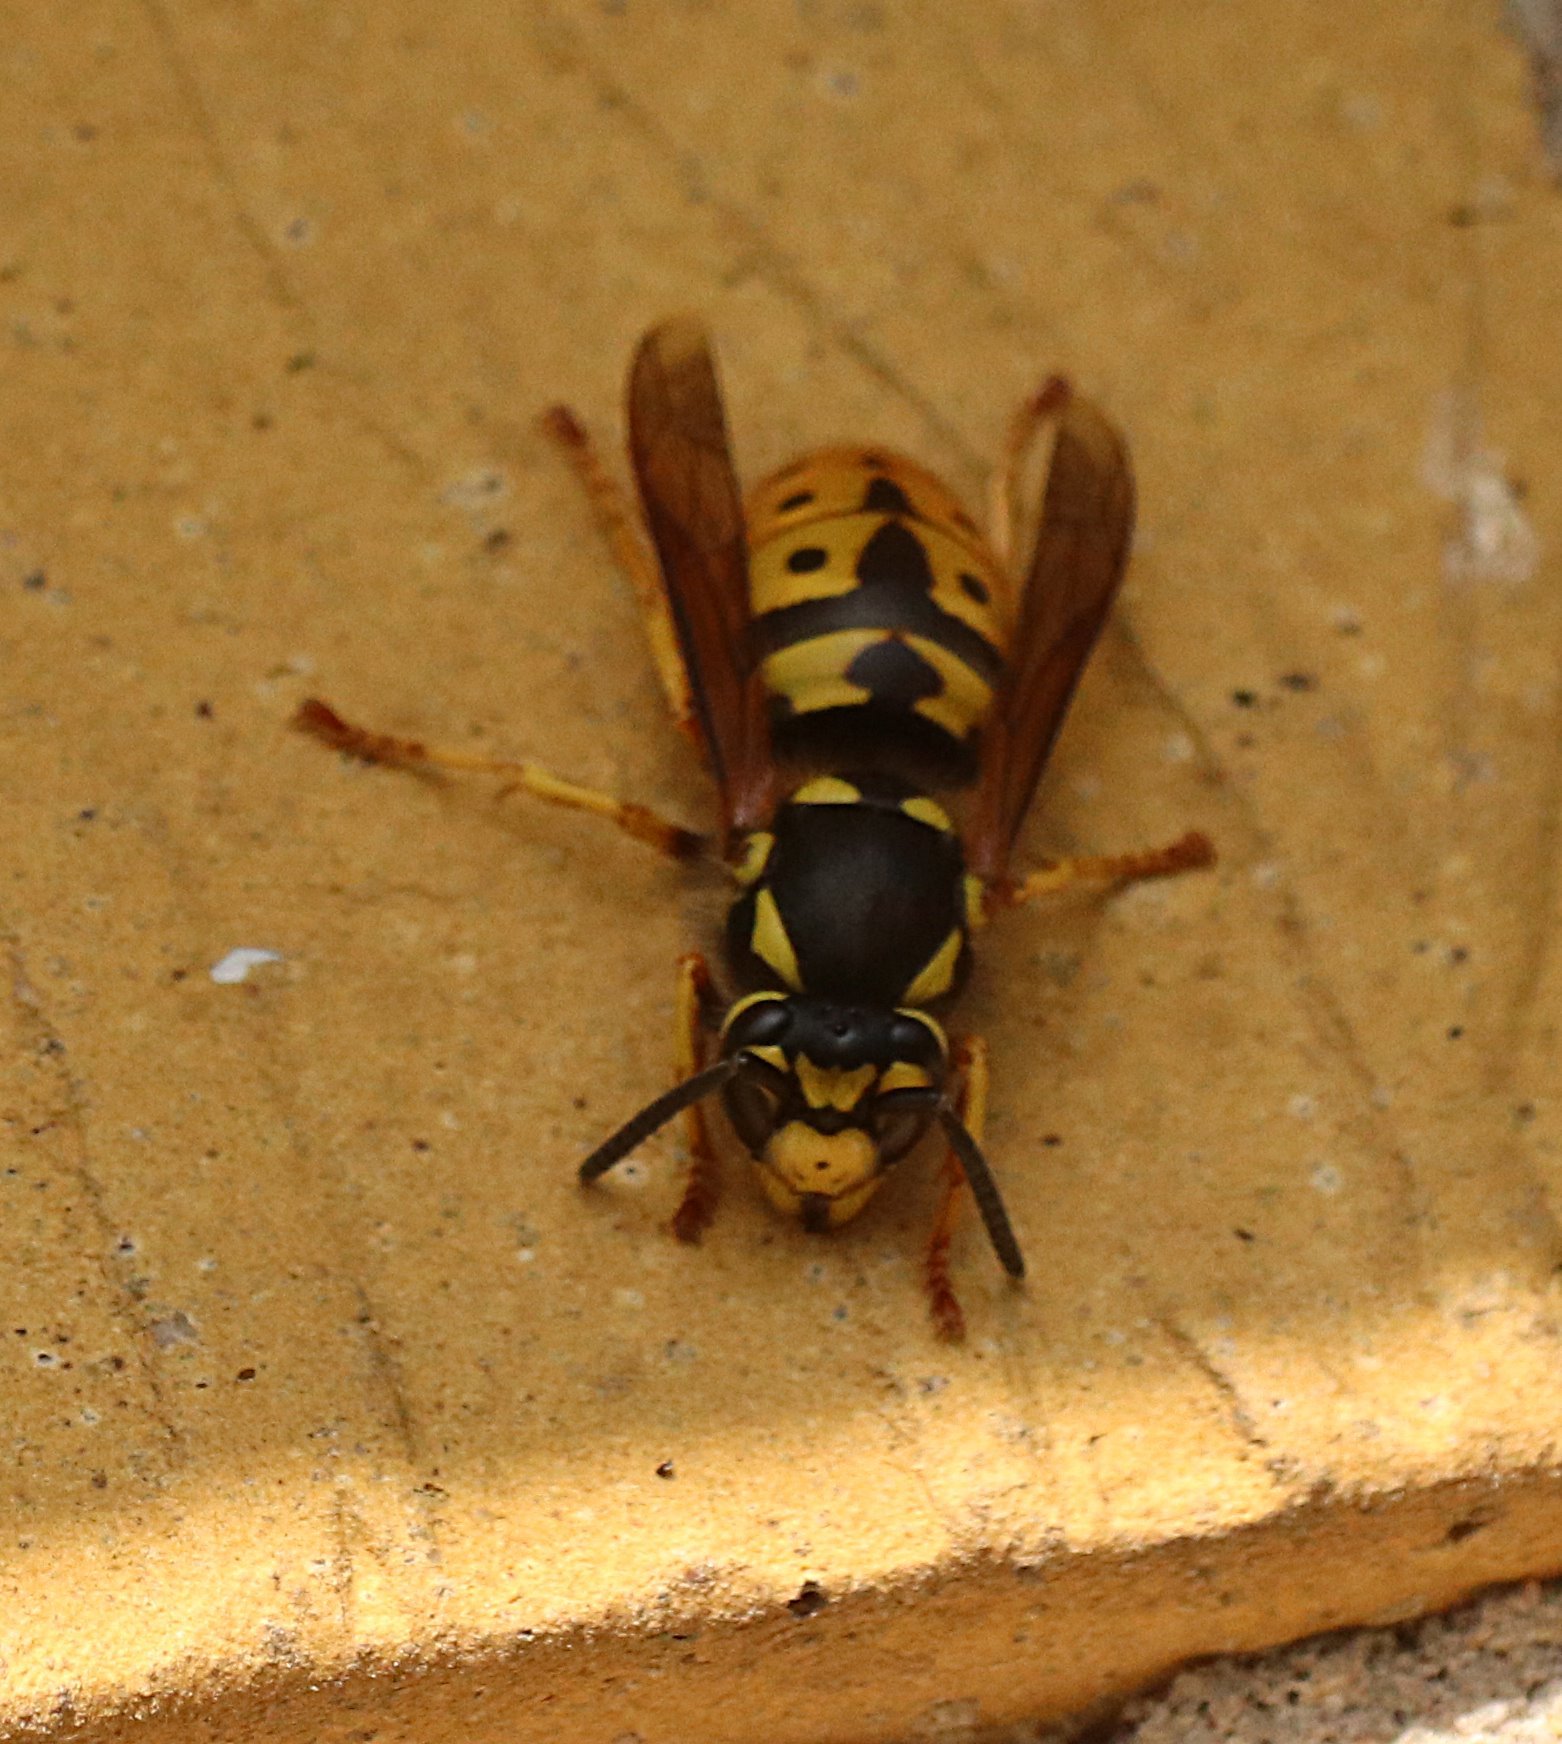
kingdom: Animalia
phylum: Arthropoda
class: Insecta
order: Hymenoptera
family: Vespidae
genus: Vespula
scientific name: Vespula germanica
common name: German wasp
